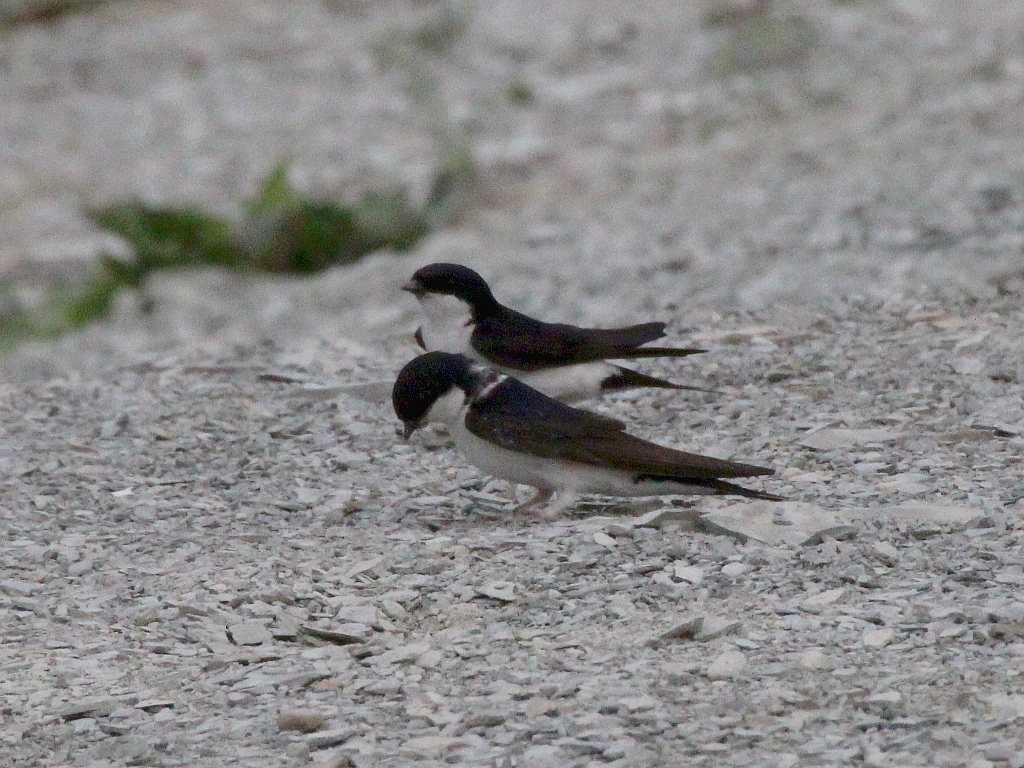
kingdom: Animalia
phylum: Chordata
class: Aves
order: Passeriformes
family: Hirundinidae
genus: Delichon
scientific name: Delichon urbicum
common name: Common house martin
